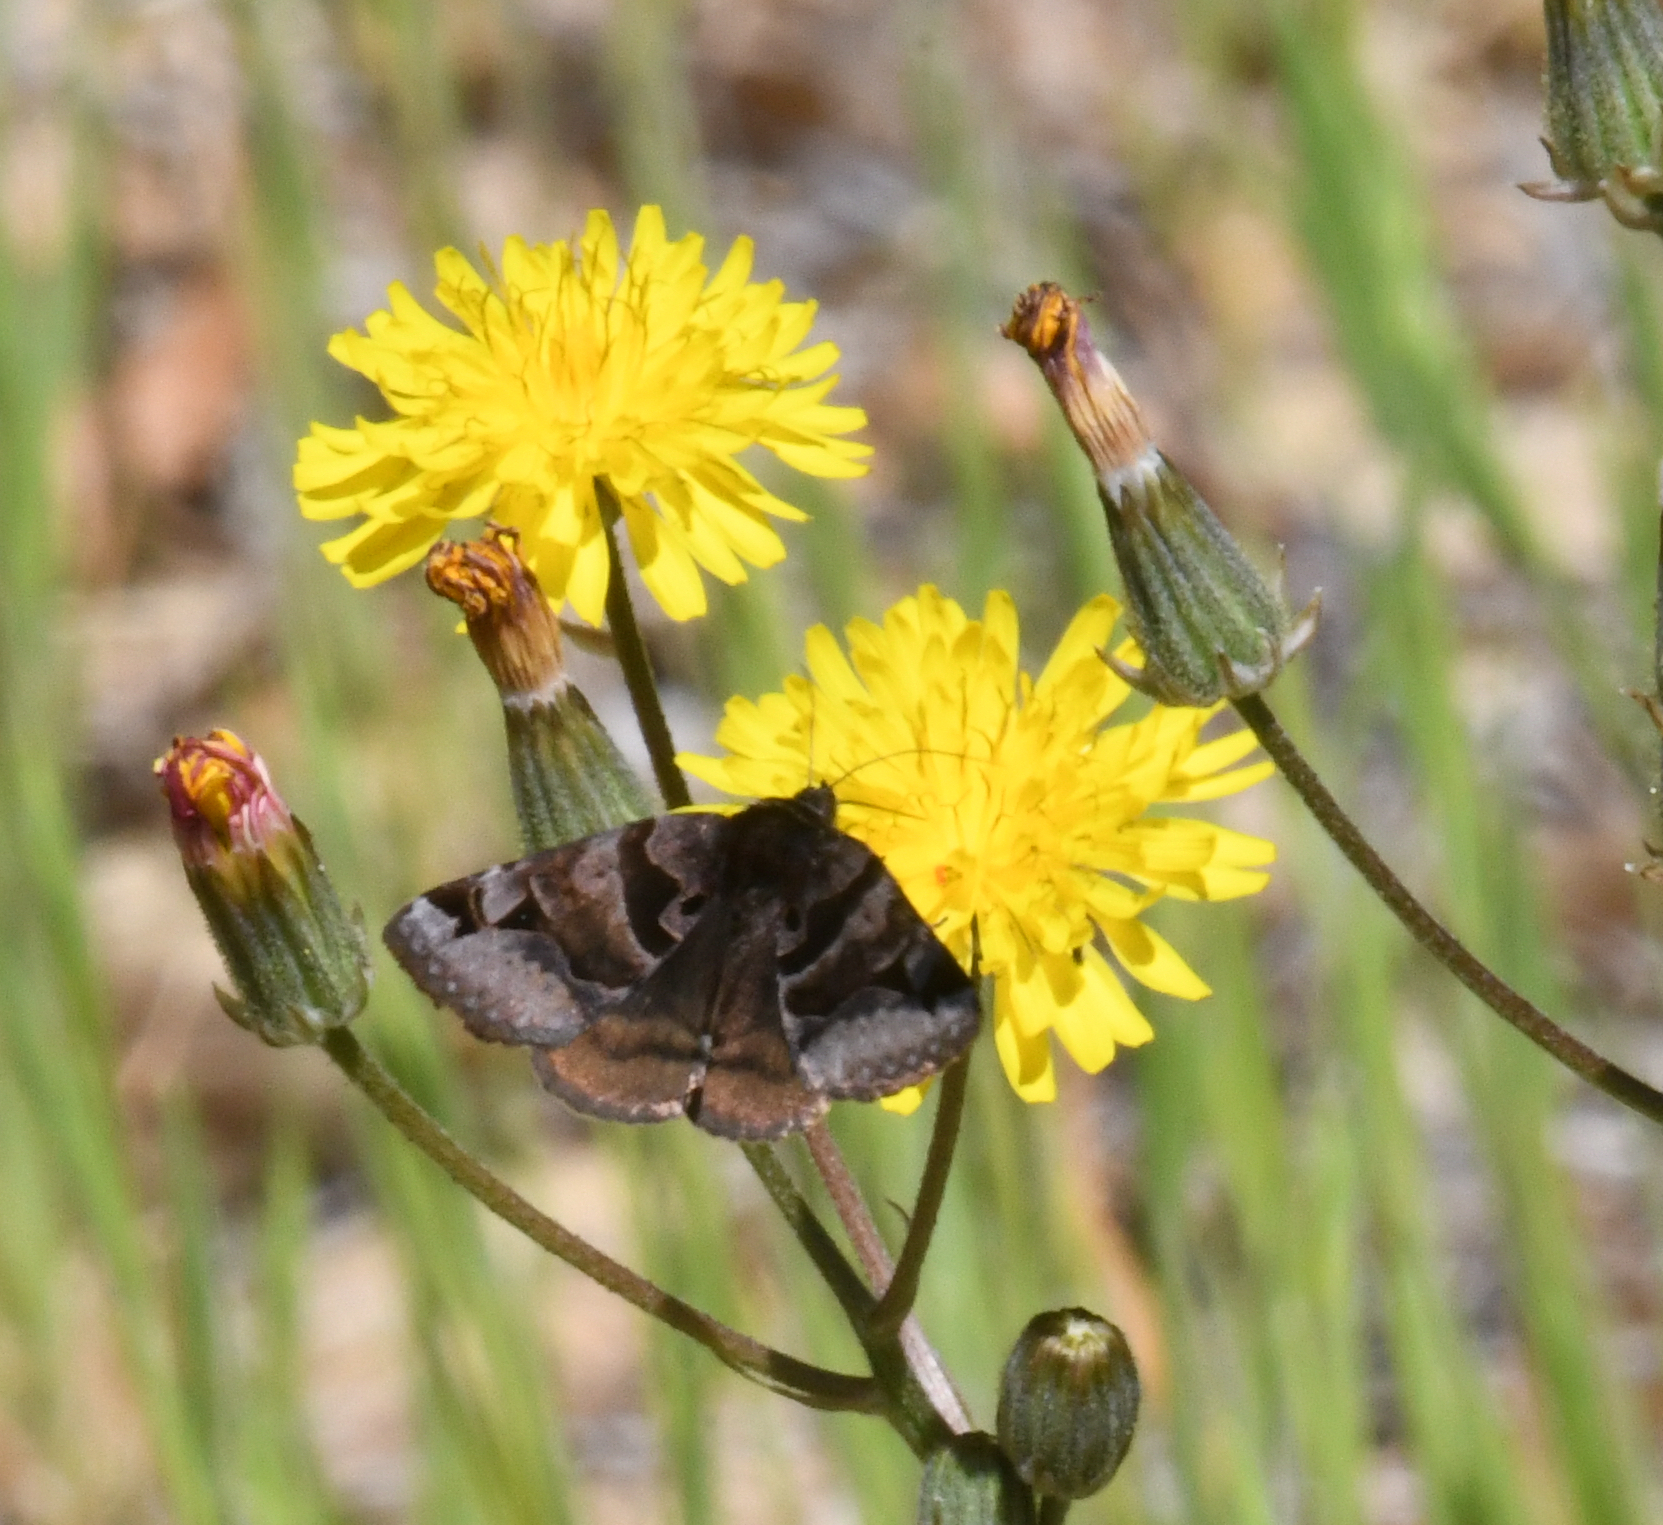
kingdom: Animalia
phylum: Arthropoda
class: Insecta
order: Lepidoptera
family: Erebidae
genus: Euclidia
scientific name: Euclidia ardita
